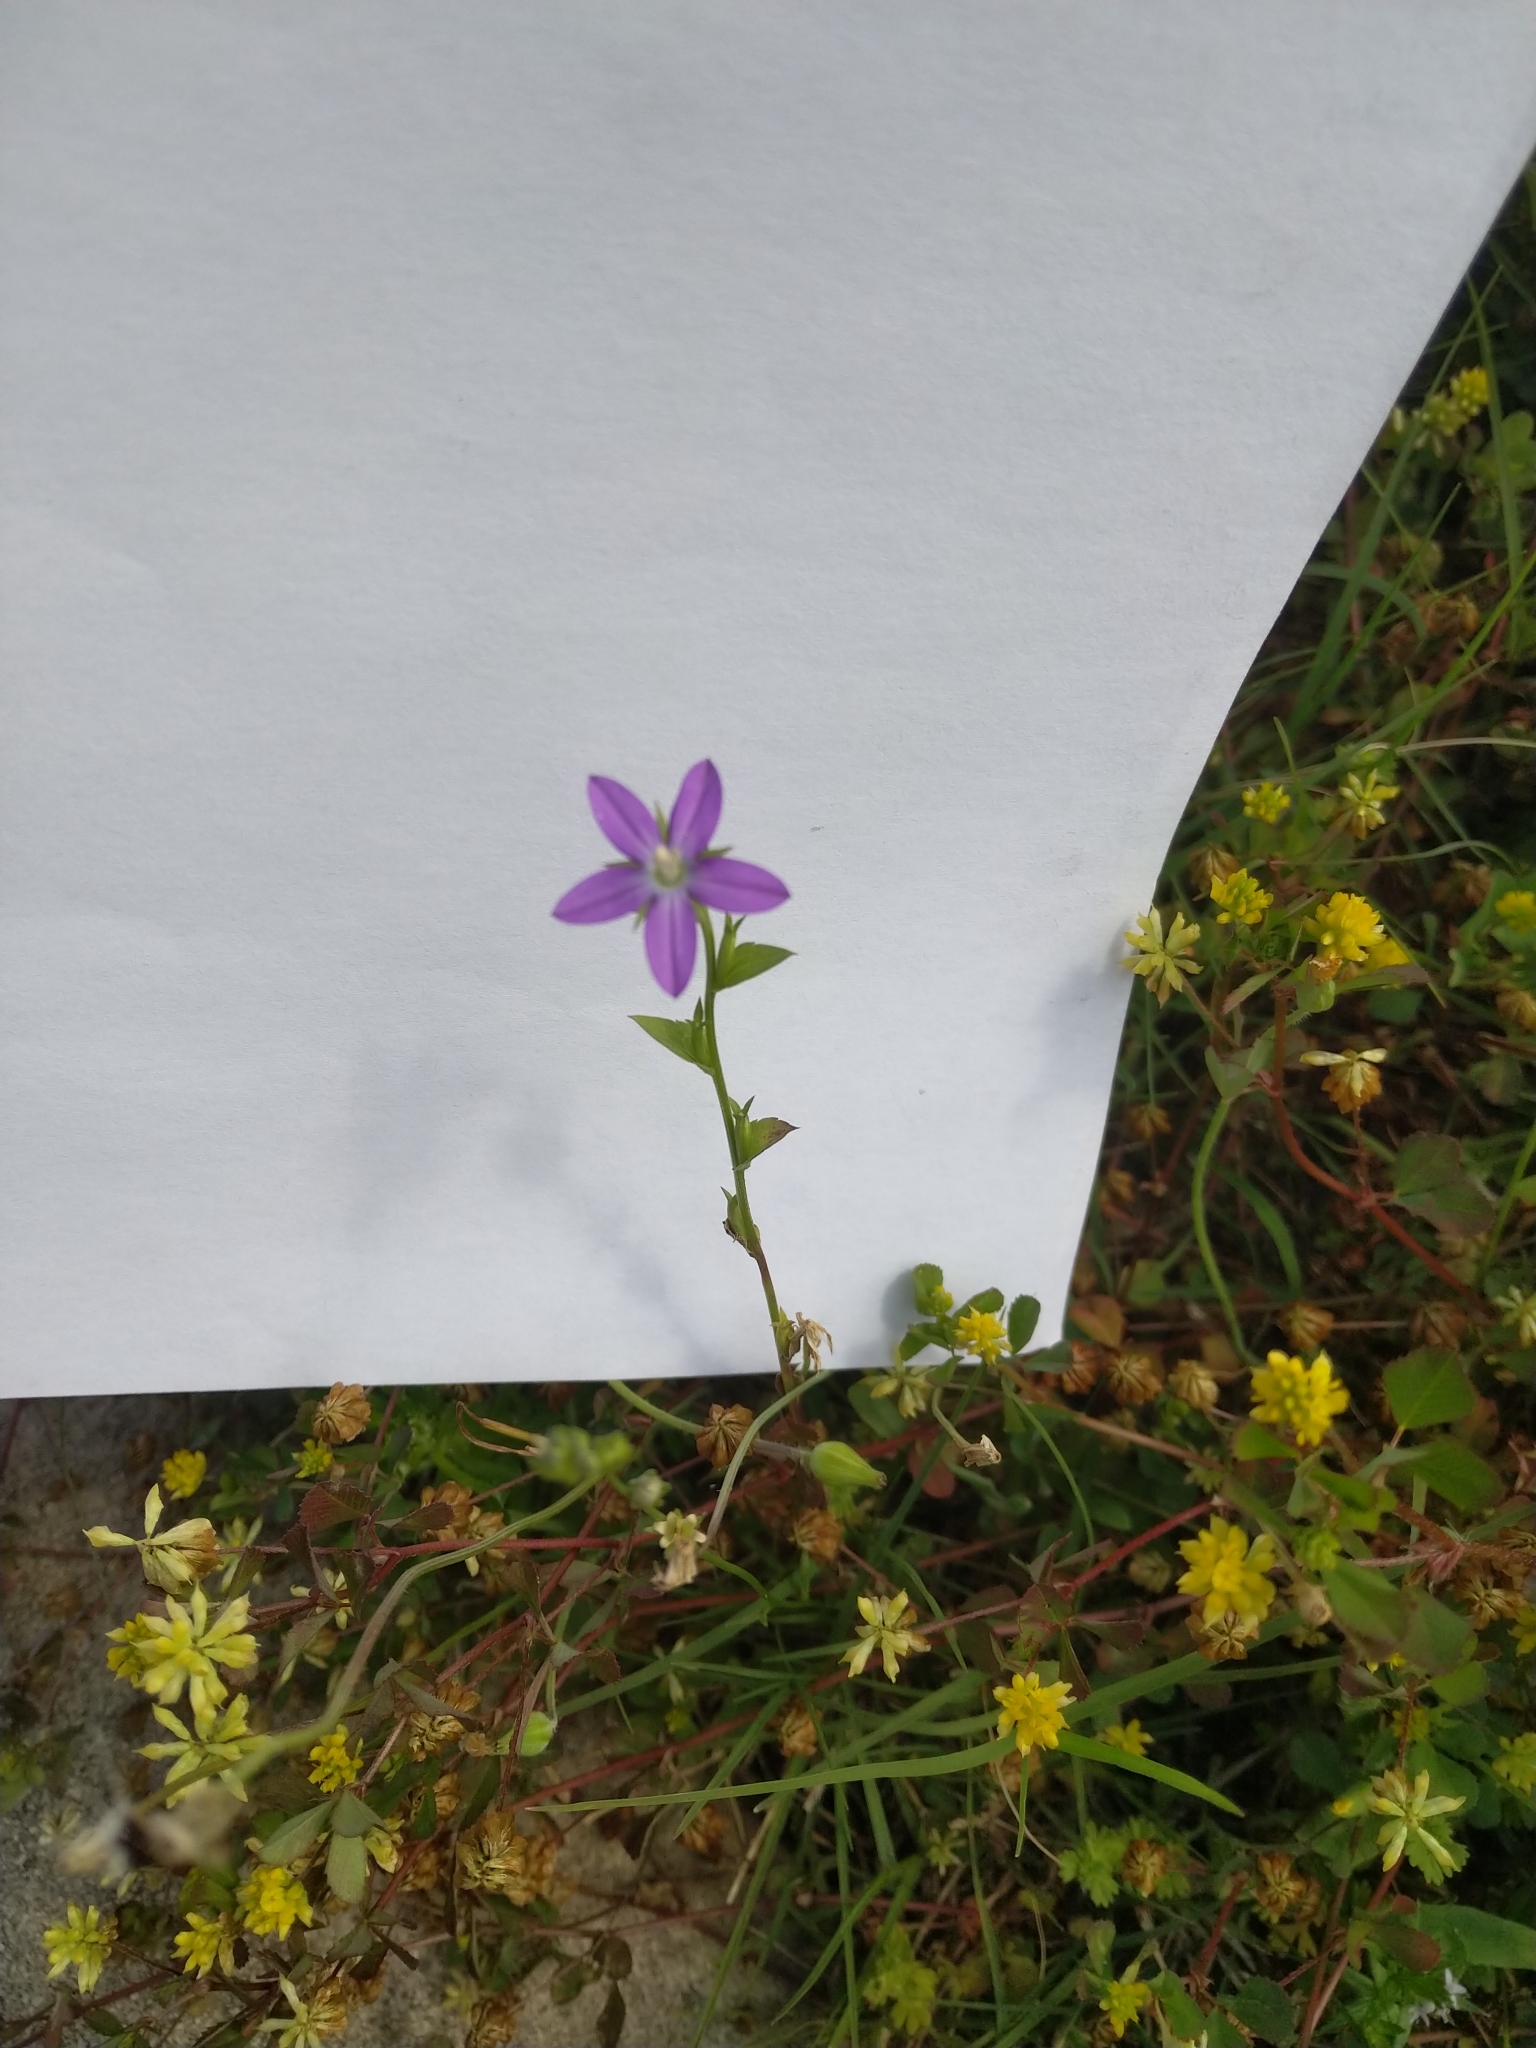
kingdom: Plantae
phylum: Tracheophyta
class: Magnoliopsida
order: Asterales
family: Campanulaceae
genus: Triodanis
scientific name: Triodanis biflora
